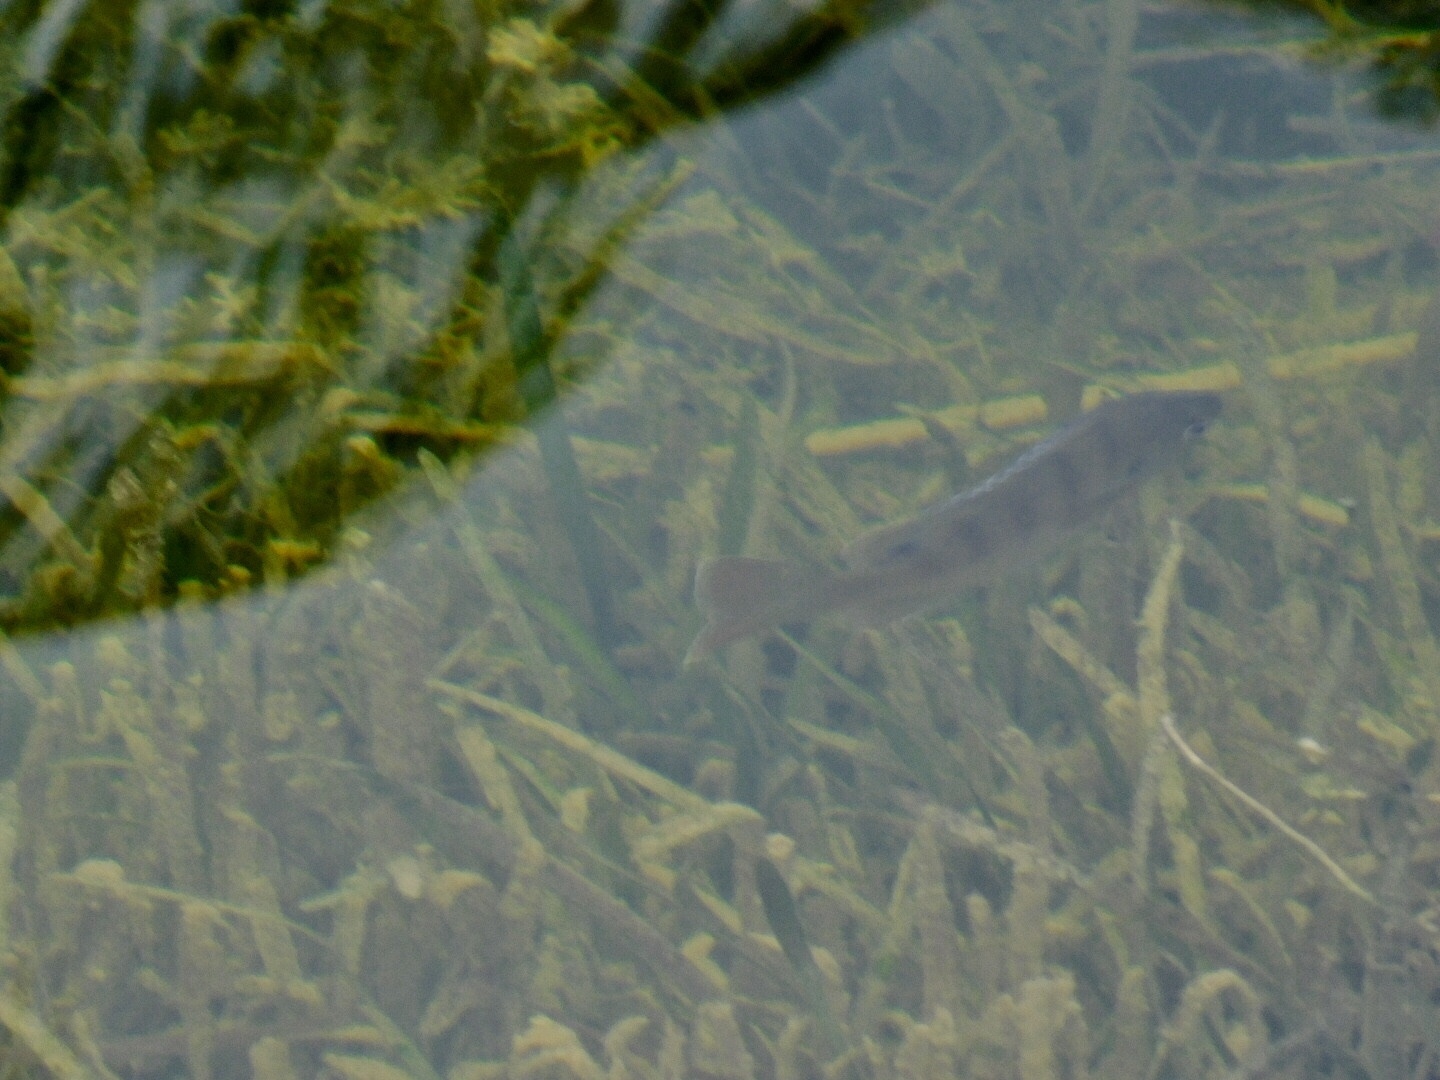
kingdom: Animalia
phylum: Chordata
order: Perciformes
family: Centrarchidae
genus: Lepomis
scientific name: Lepomis macrochirus
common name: Bluegill
